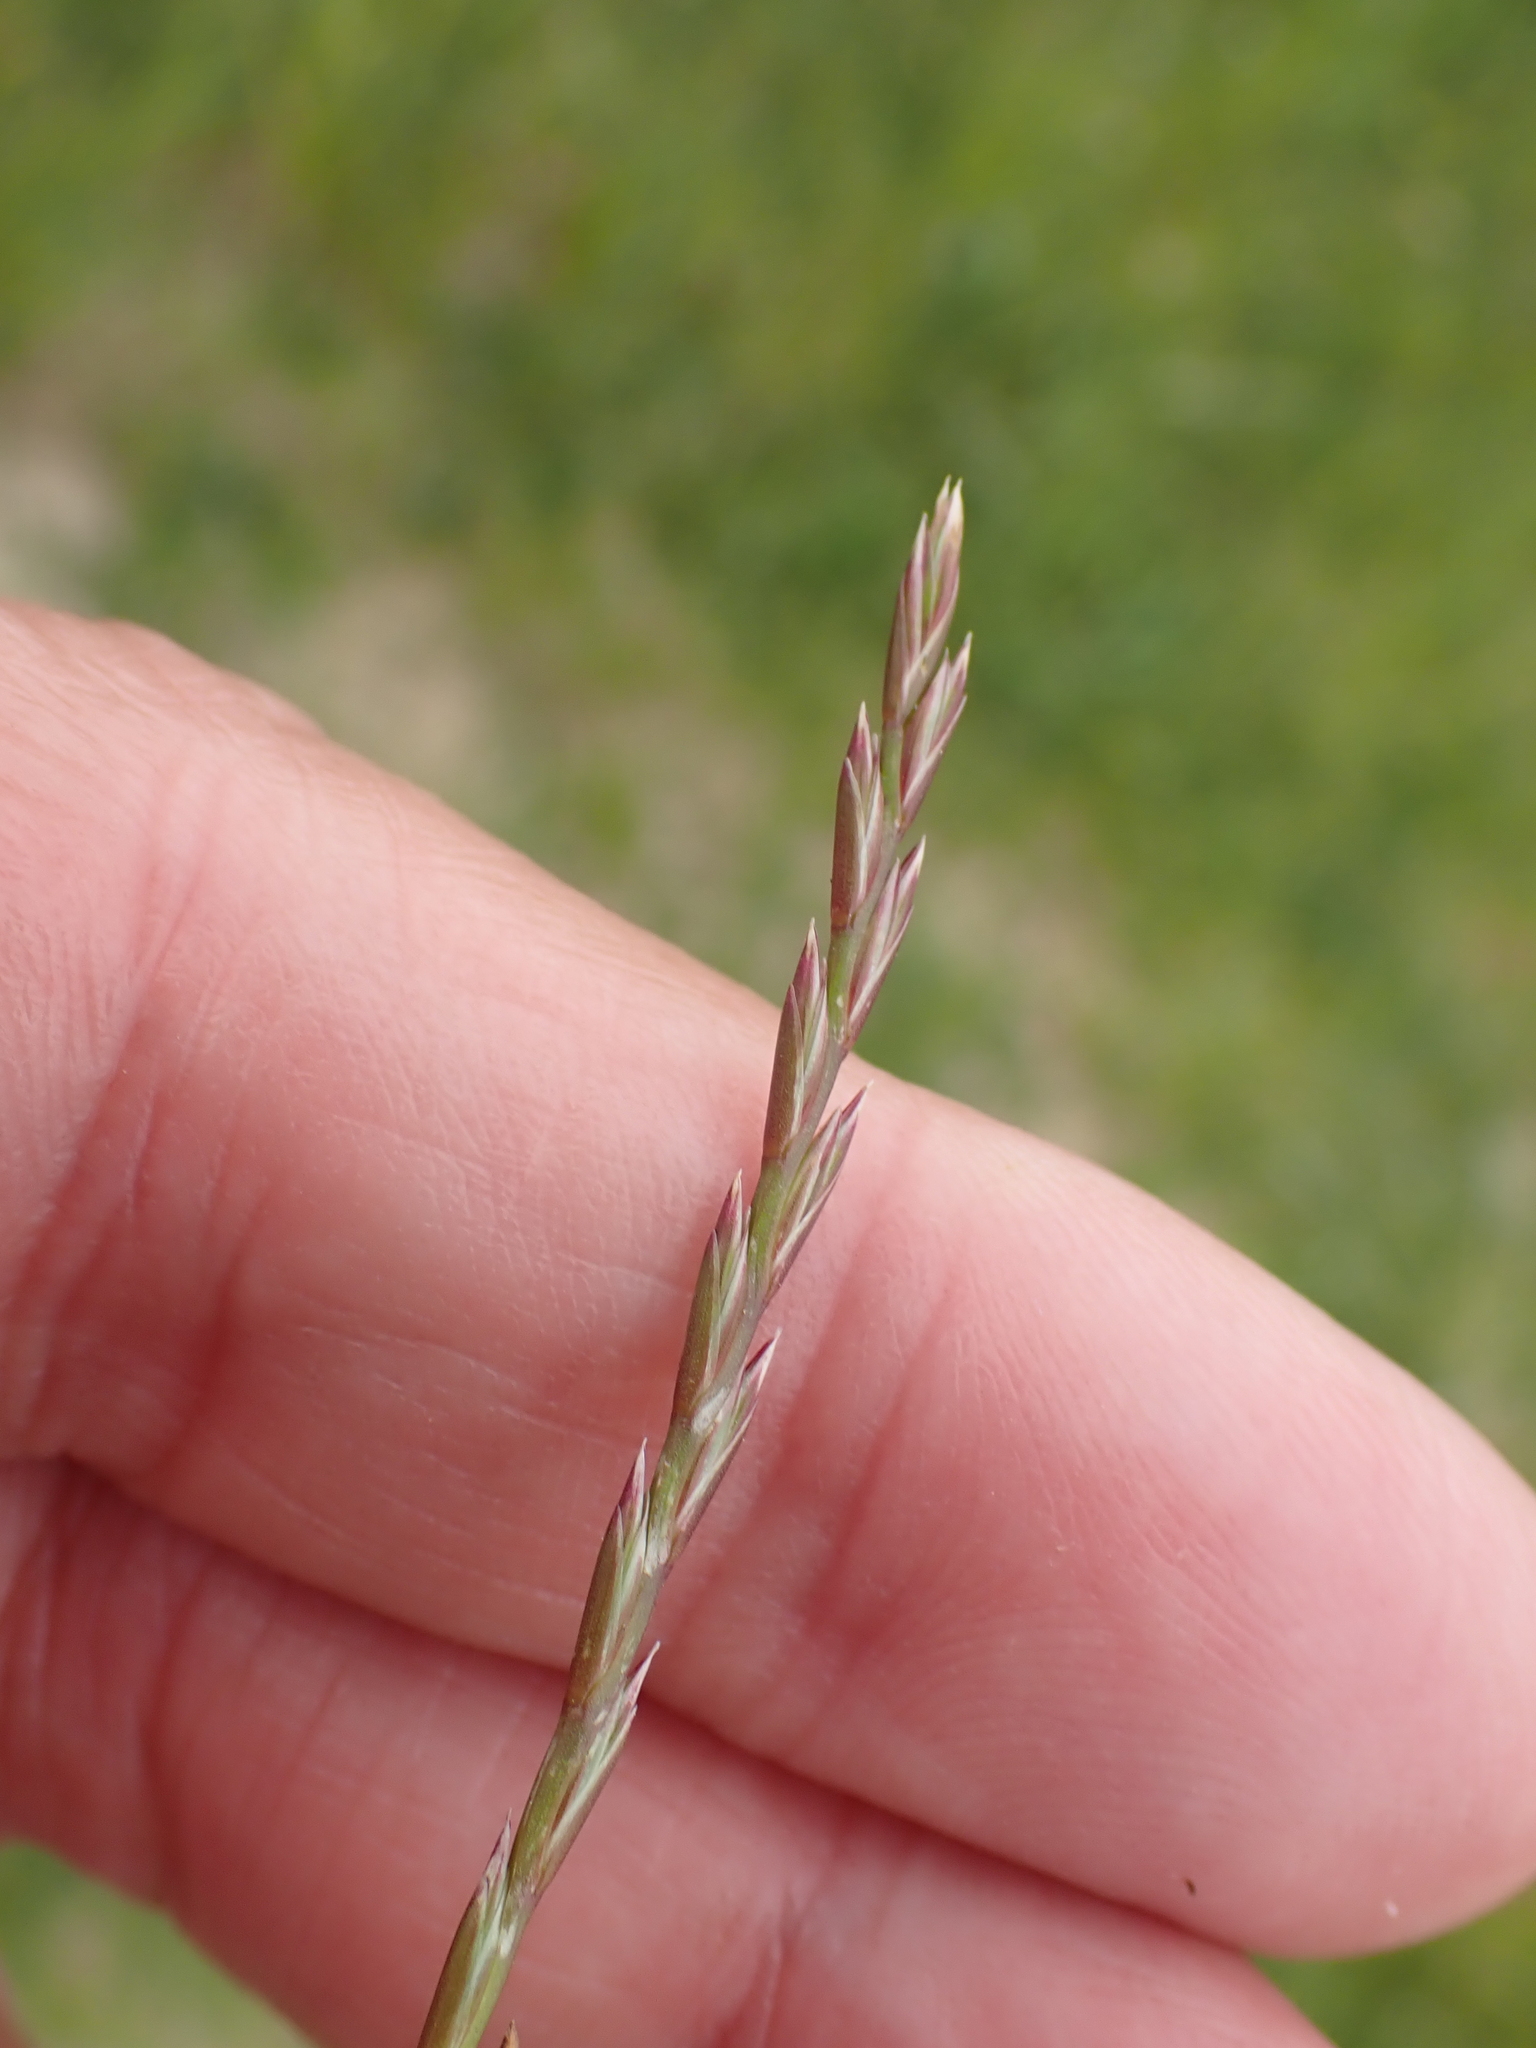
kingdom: Plantae
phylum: Tracheophyta
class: Liliopsida
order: Poales
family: Poaceae
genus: Lolium
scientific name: Lolium perenne
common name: Perennial ryegrass
